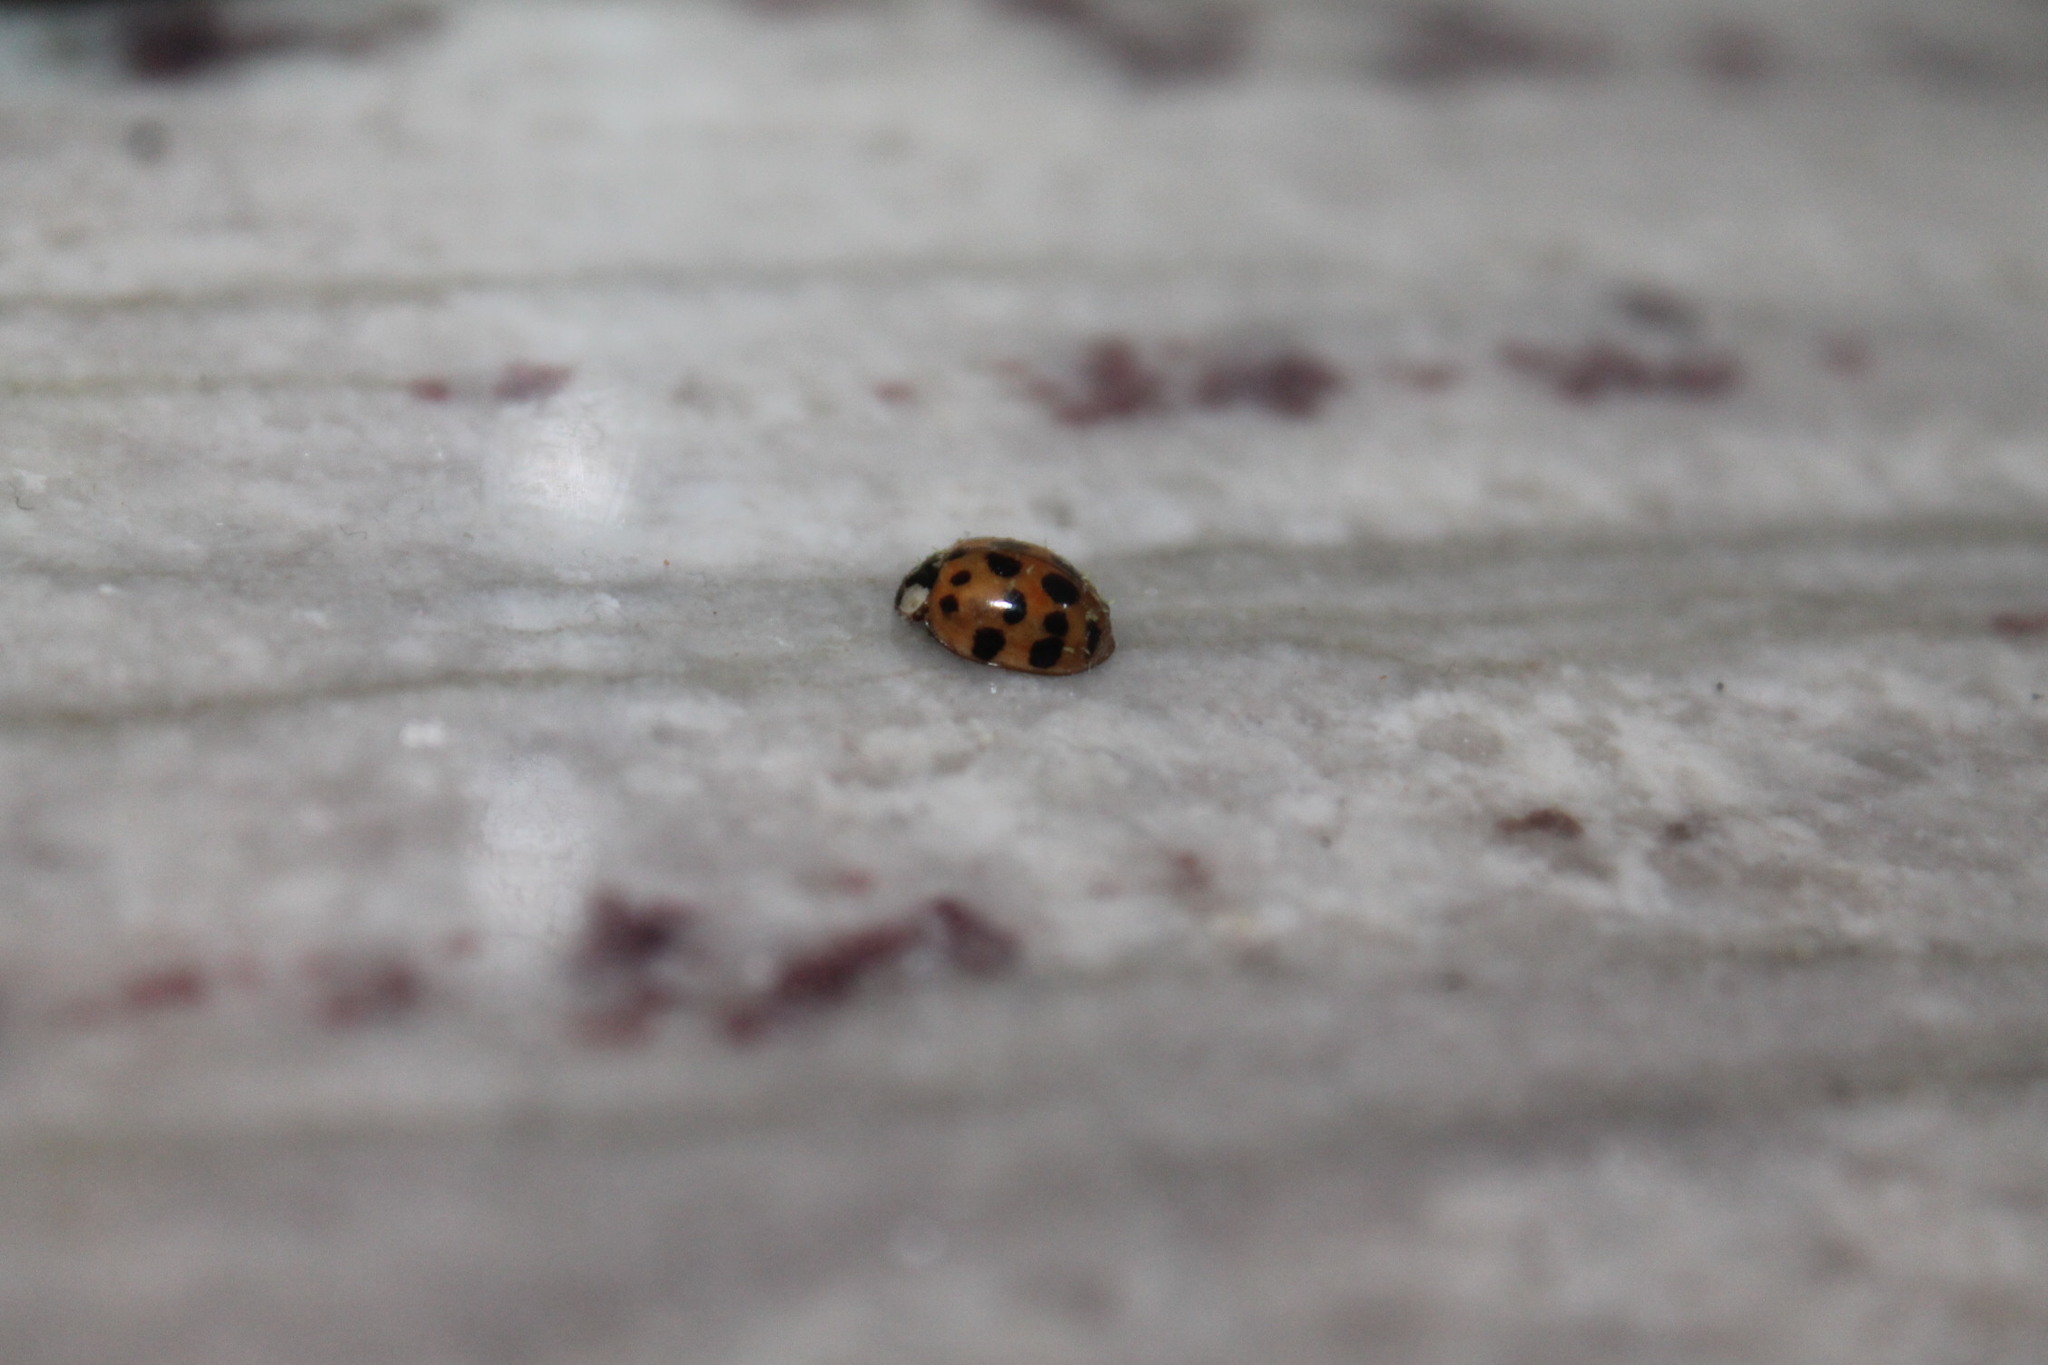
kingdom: Fungi
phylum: Ascomycota
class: Laboulbeniomycetes
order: Laboulbeniales
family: Laboulbeniaceae
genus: Hesperomyces
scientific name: Hesperomyces harmoniae
